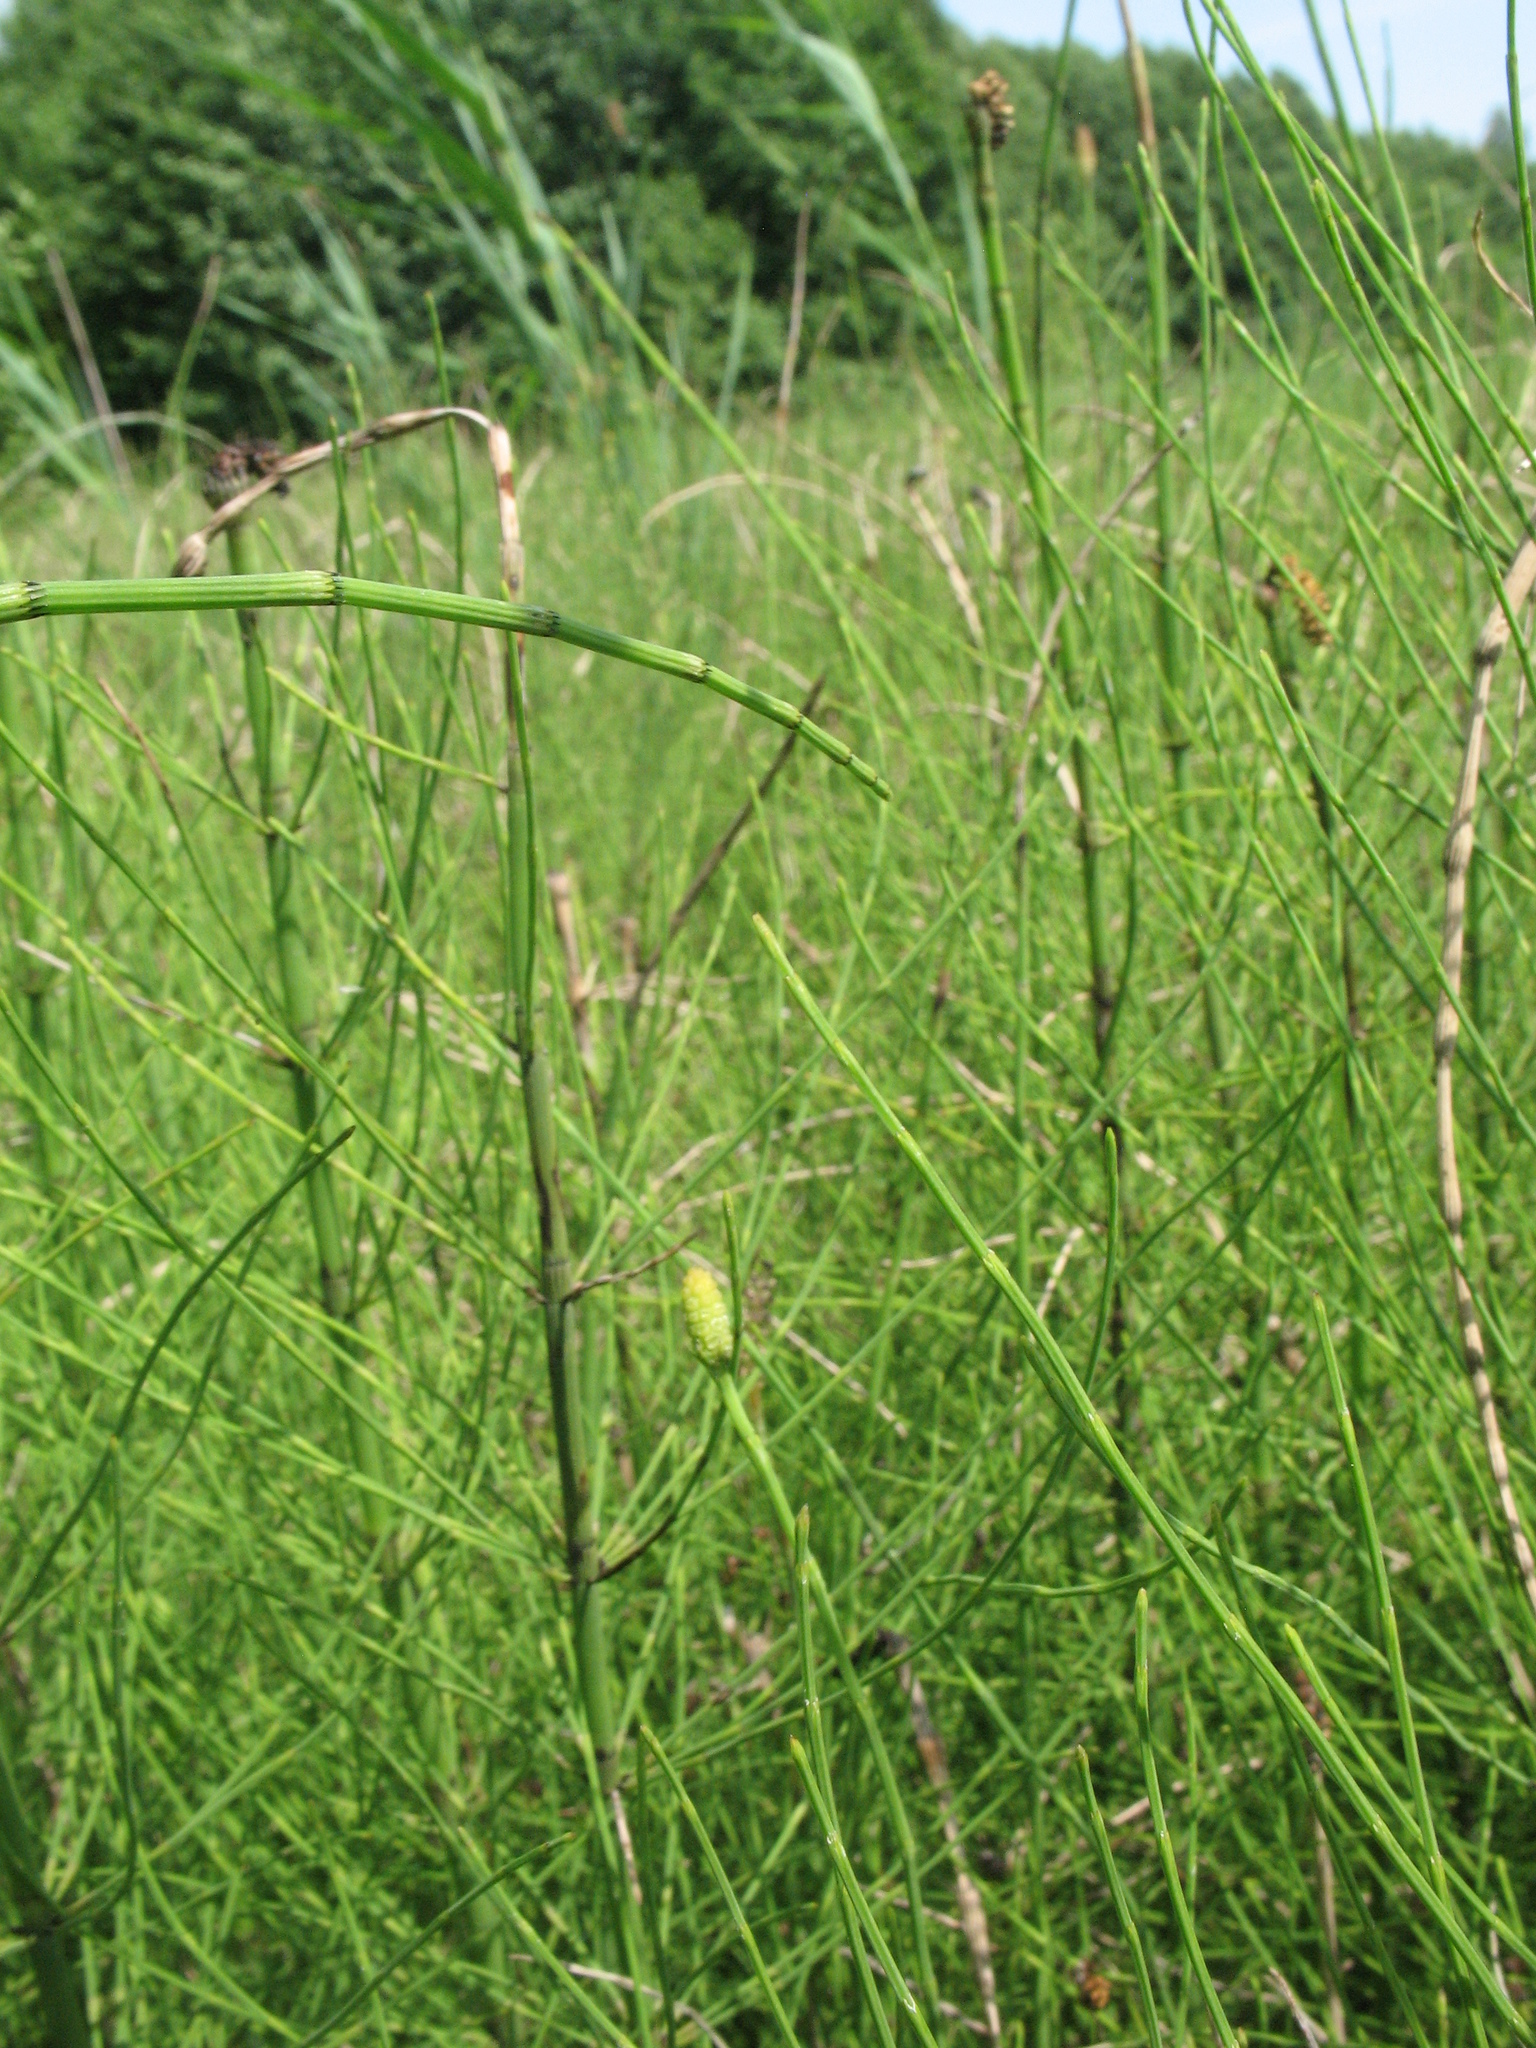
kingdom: Plantae
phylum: Tracheophyta
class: Polypodiopsida
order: Equisetales
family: Equisetaceae
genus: Equisetum
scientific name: Equisetum fluviatile
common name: Water horsetail
